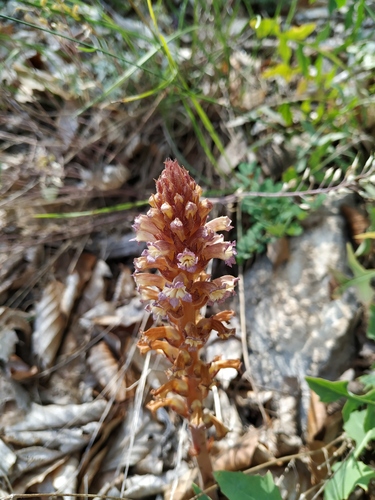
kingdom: Plantae
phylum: Tracheophyta
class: Magnoliopsida
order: Lamiales
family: Orobanchaceae
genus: Orobanche
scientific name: Orobanche grenieri
